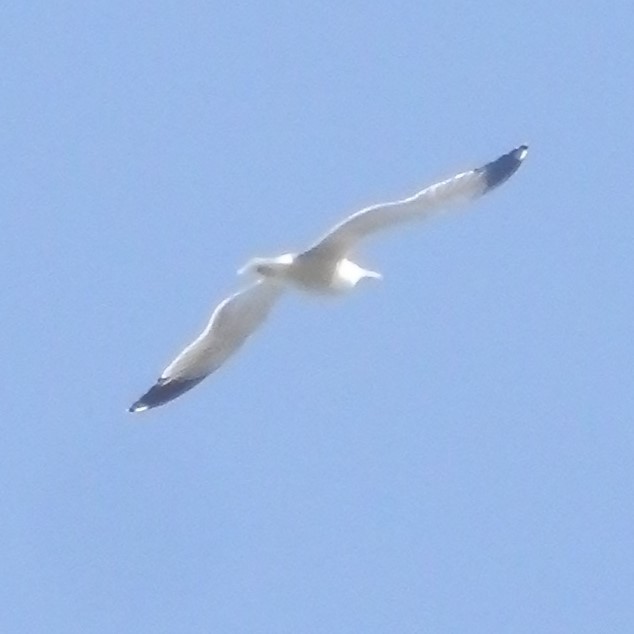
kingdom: Animalia
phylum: Chordata
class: Aves
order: Charadriiformes
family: Laridae
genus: Larus
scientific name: Larus
